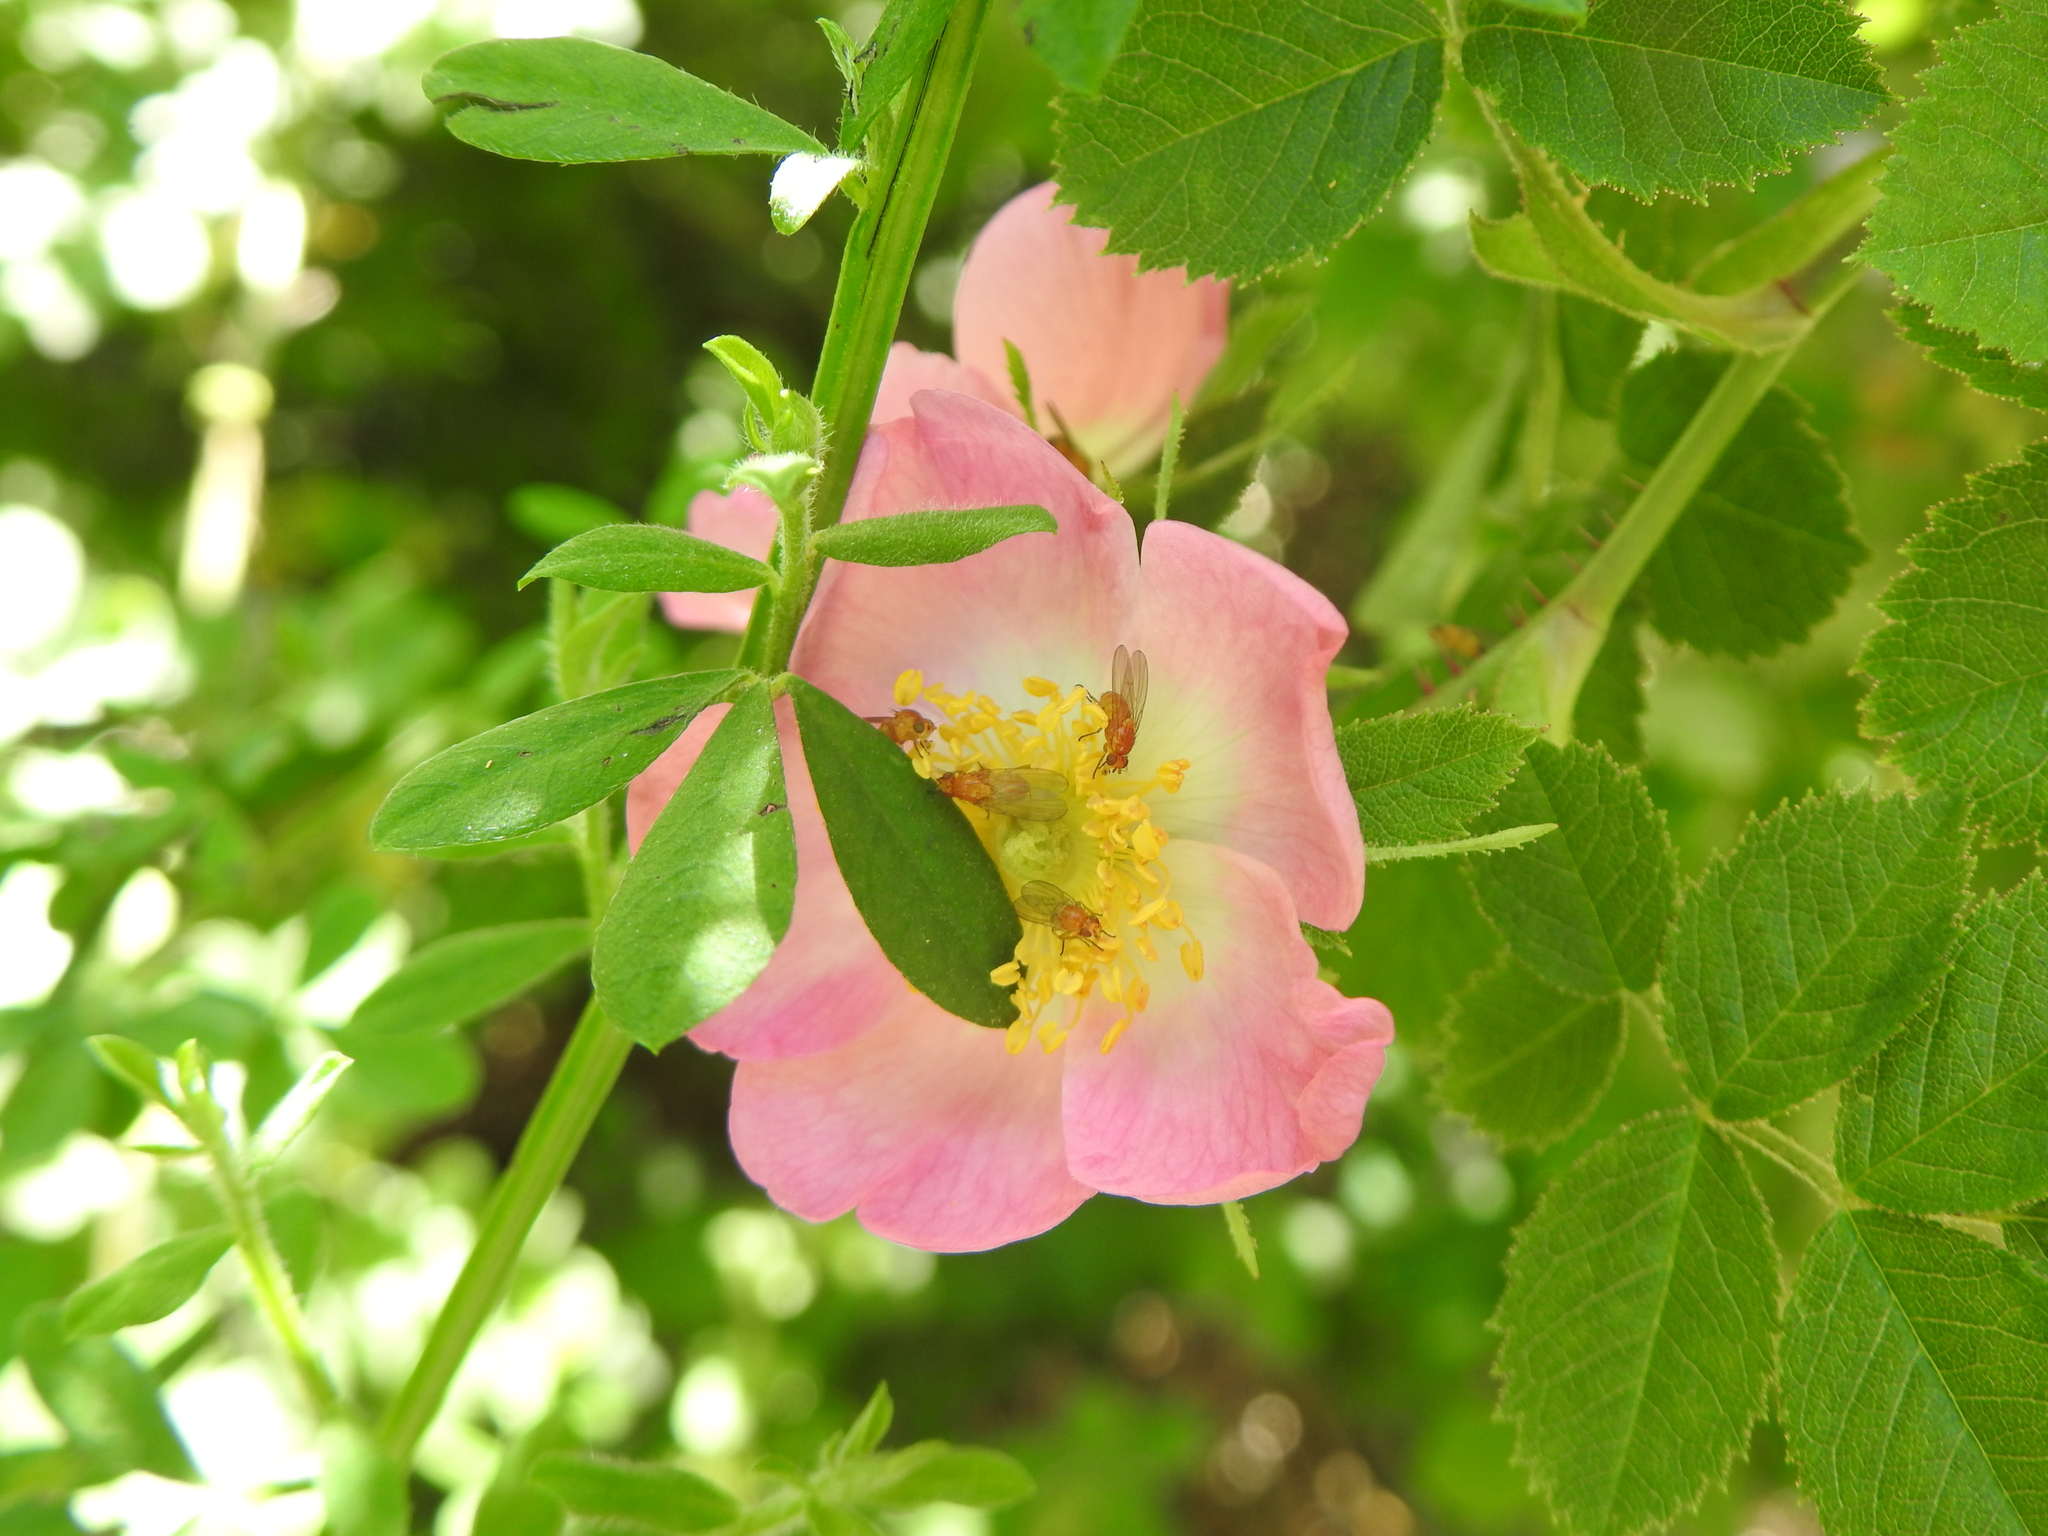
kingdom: Plantae
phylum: Tracheophyta
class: Magnoliopsida
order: Rosales
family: Rosaceae
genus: Rosa
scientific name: Rosa rubiginosa
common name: Sweet-briar
